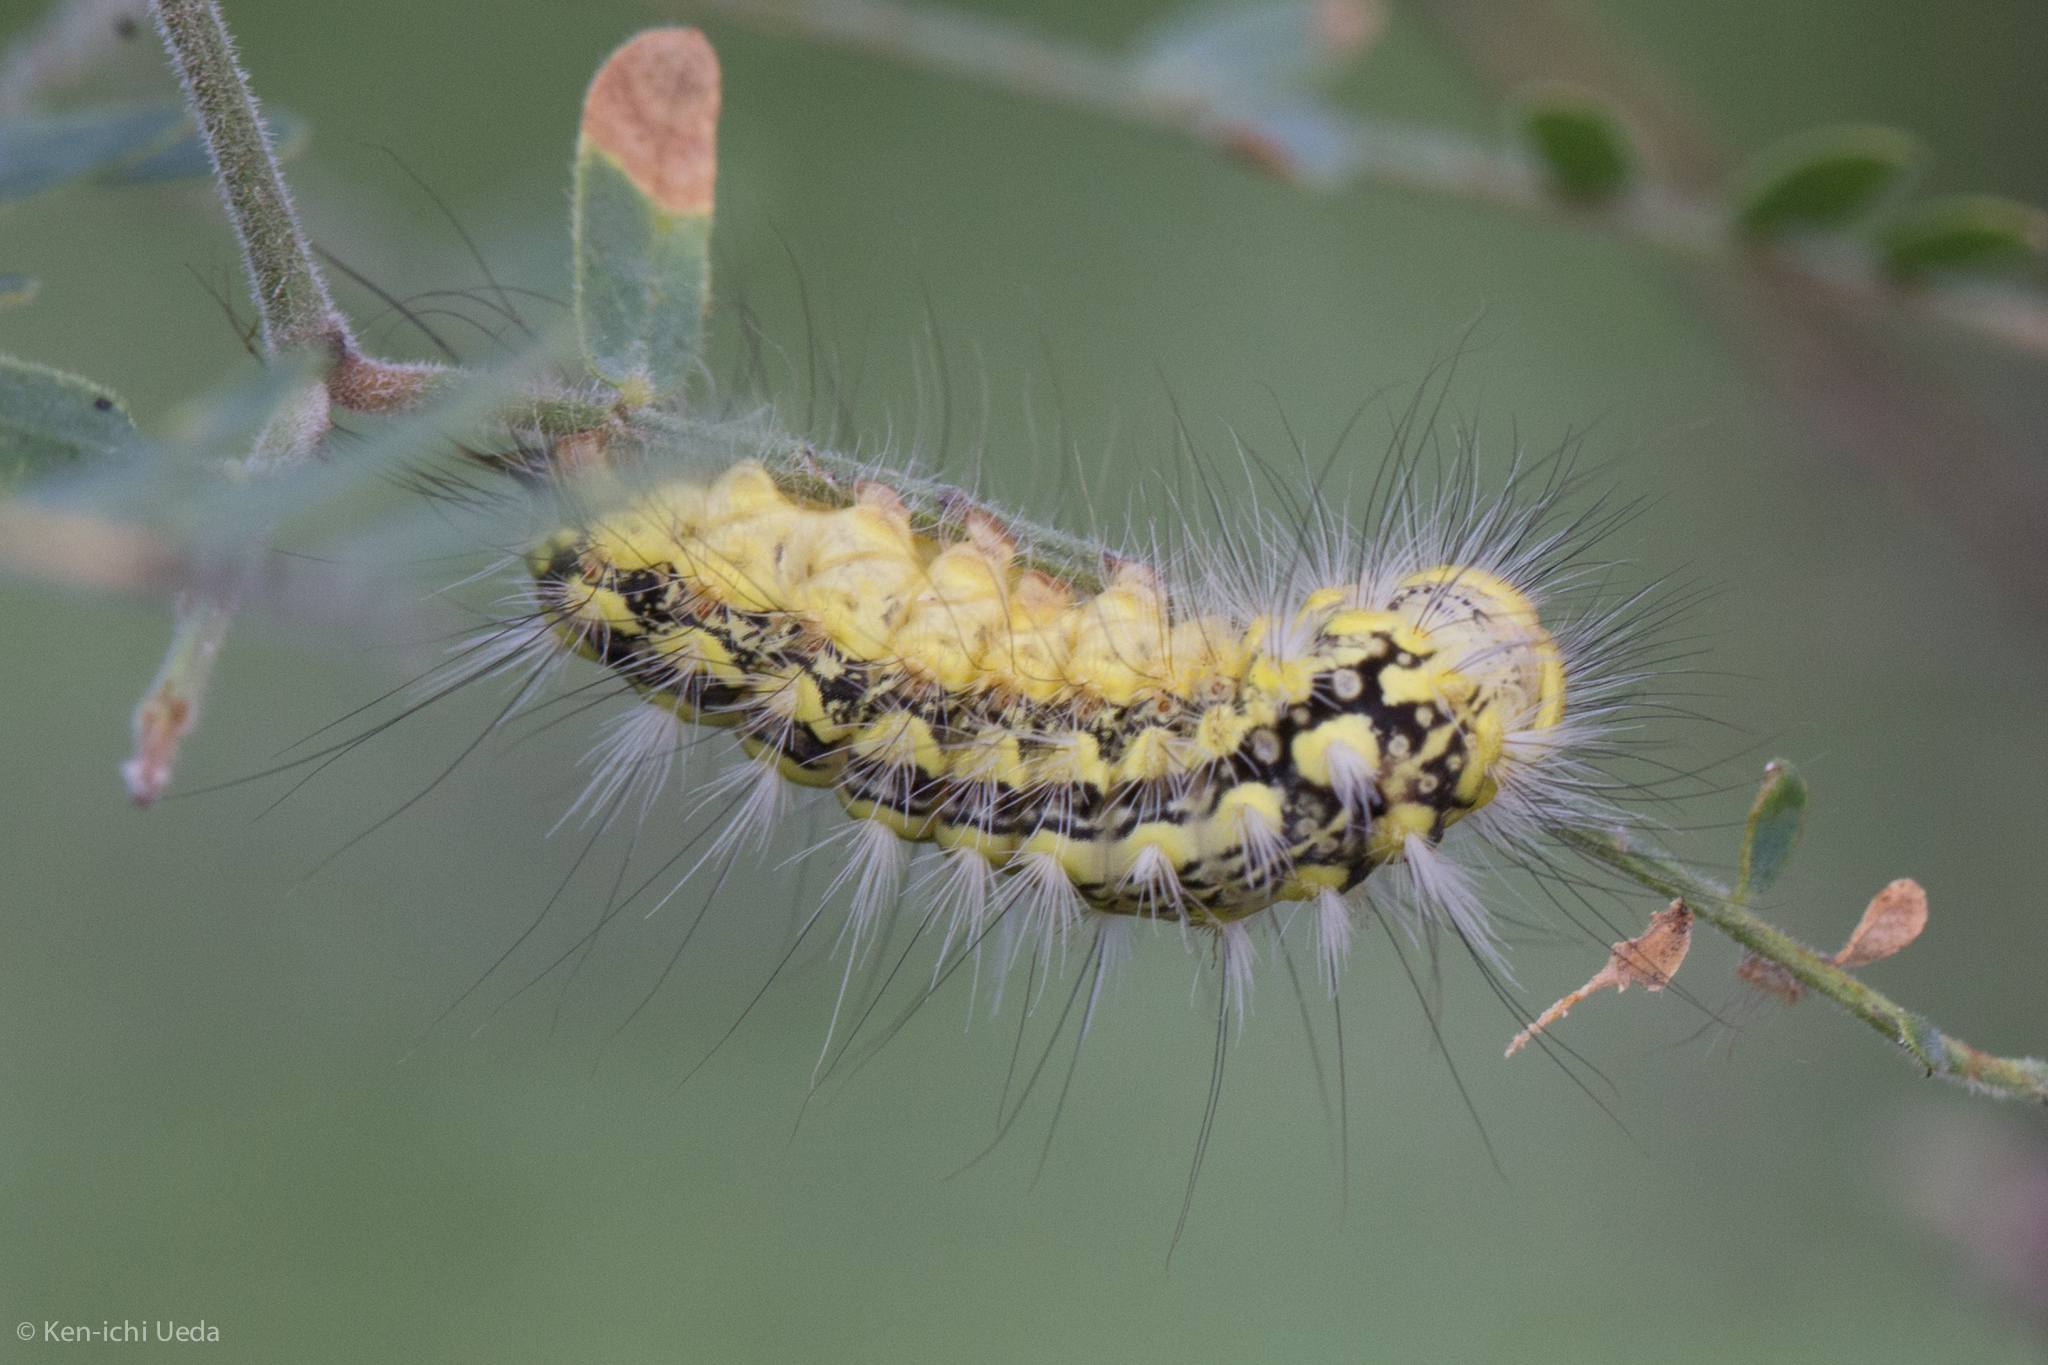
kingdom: Animalia
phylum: Arthropoda
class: Insecta
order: Lepidoptera
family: Megalopygidae
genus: Norape
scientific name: Norape tener
